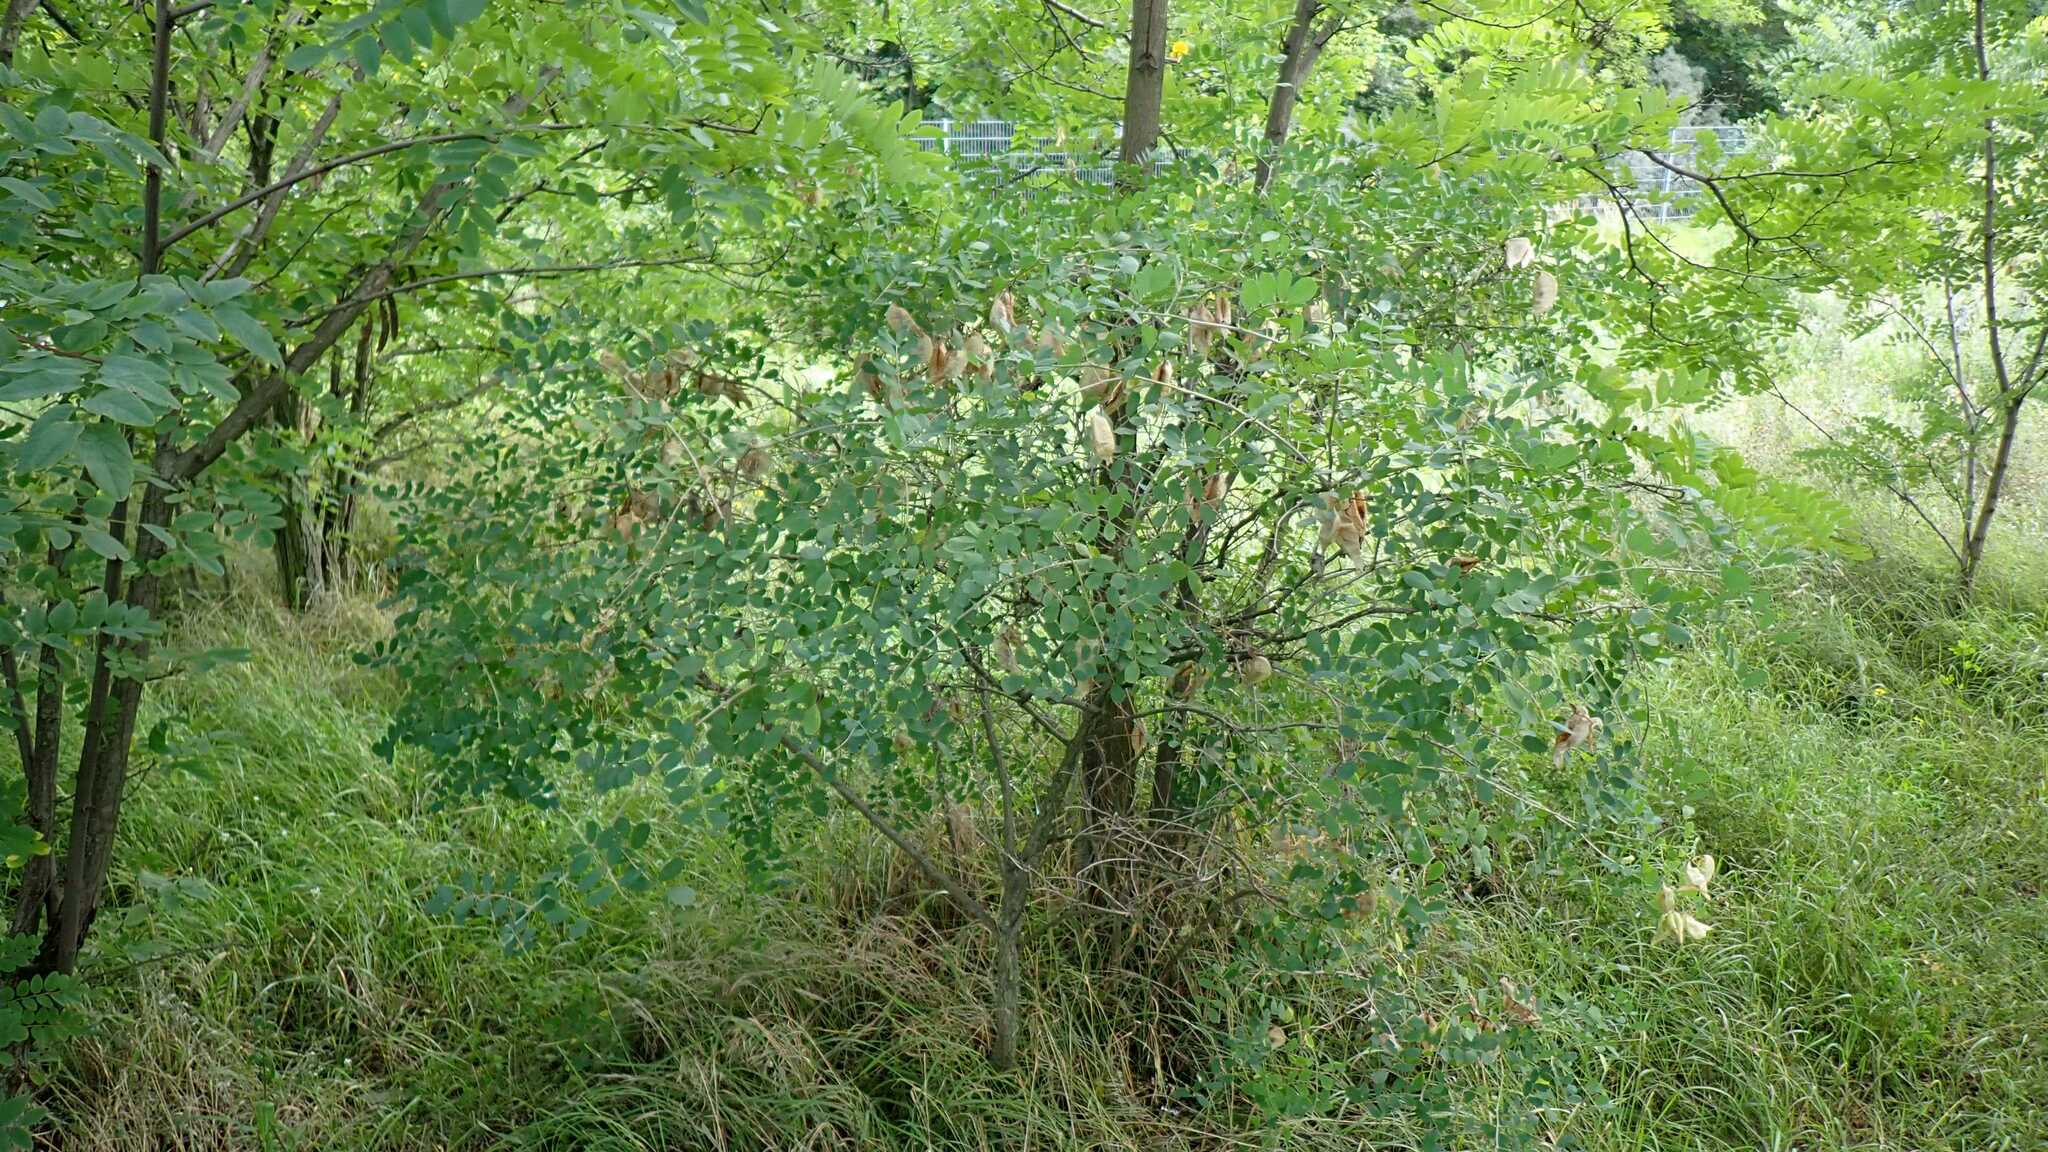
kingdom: Plantae
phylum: Tracheophyta
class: Magnoliopsida
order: Fabales
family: Fabaceae
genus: Colutea
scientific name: Colutea arborescens
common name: Bladder-senna
